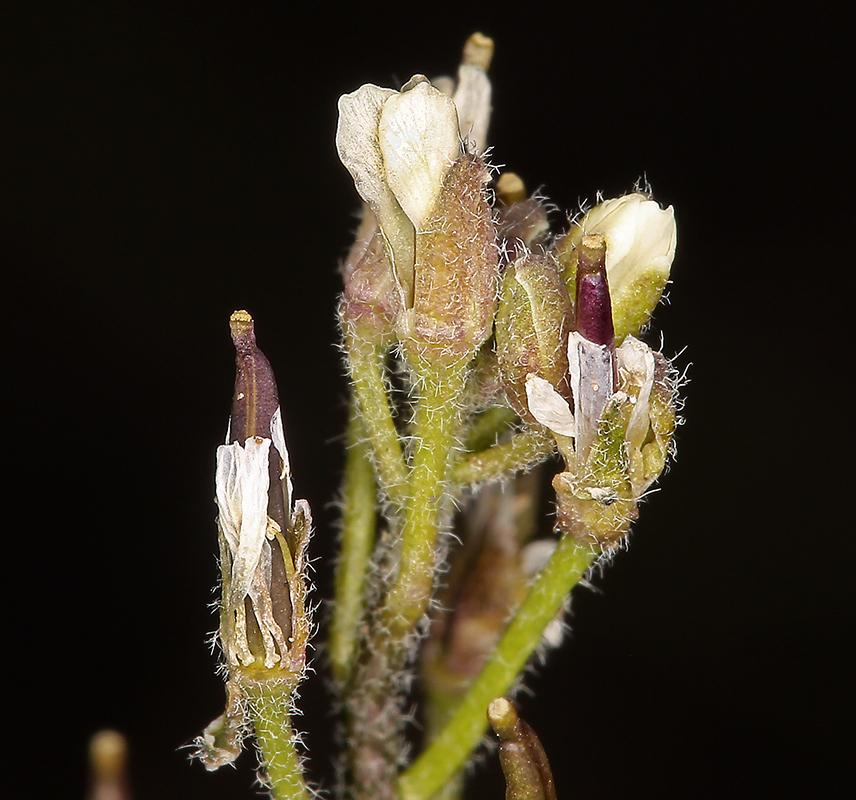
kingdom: Plantae
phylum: Tracheophyta
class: Magnoliopsida
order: Brassicales
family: Brassicaceae
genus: Crucihimalaya
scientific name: Crucihimalaya virgata
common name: Rod halimolobos
